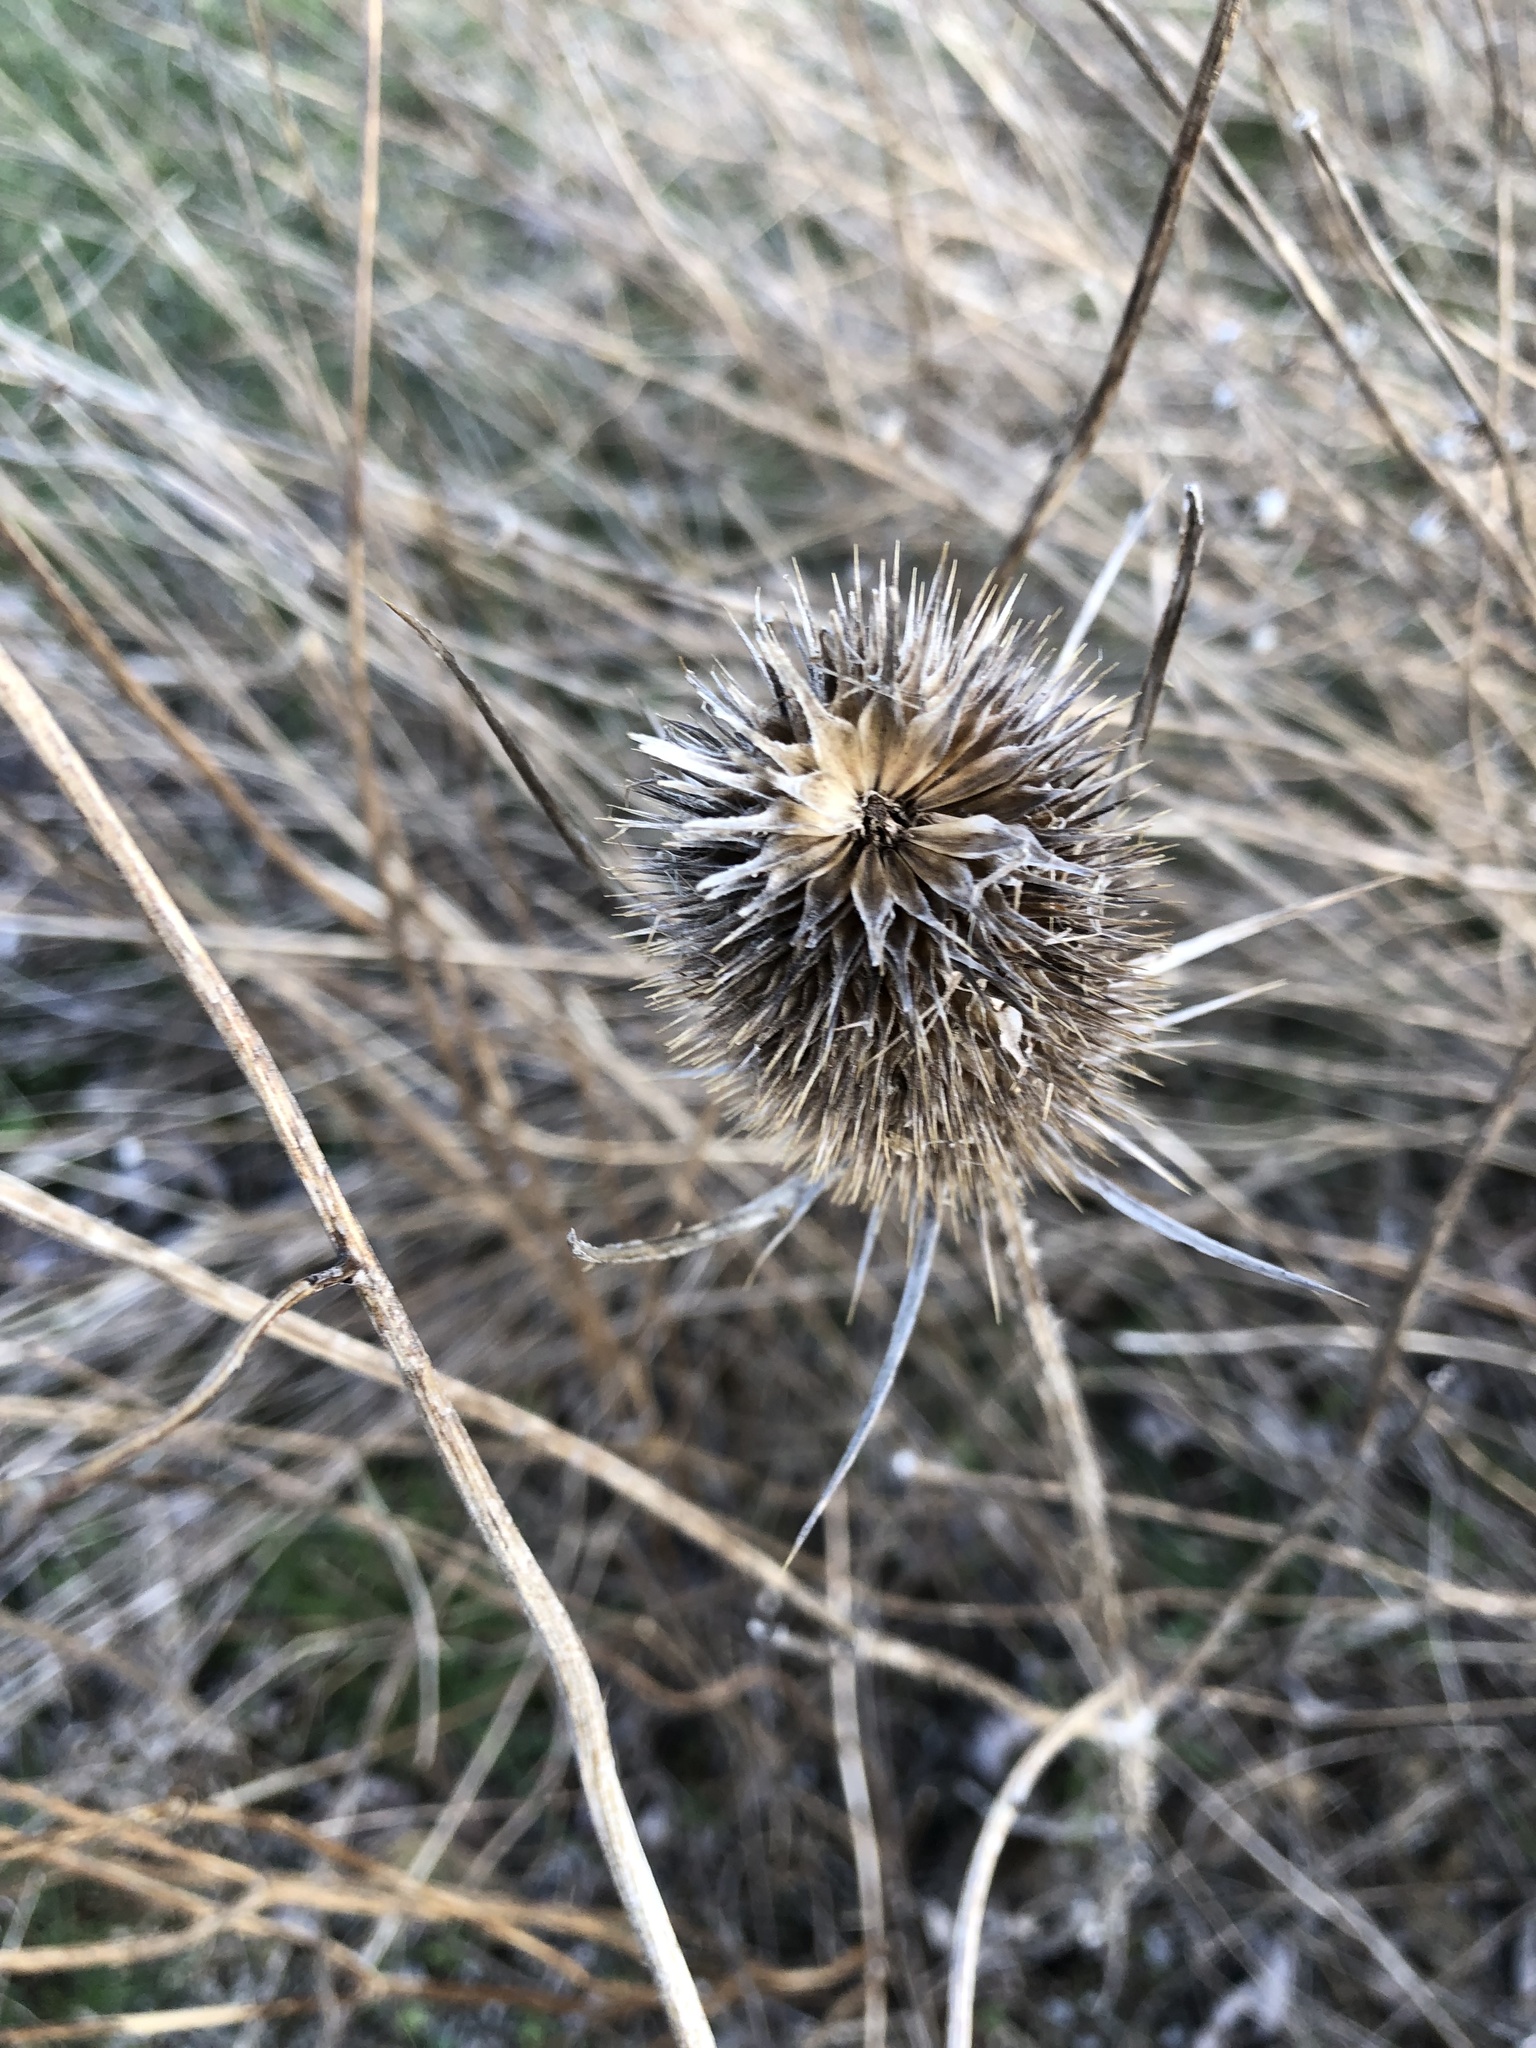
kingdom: Plantae
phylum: Tracheophyta
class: Magnoliopsida
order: Dipsacales
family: Caprifoliaceae
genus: Dipsacus
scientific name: Dipsacus fullonum
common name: Teasel
